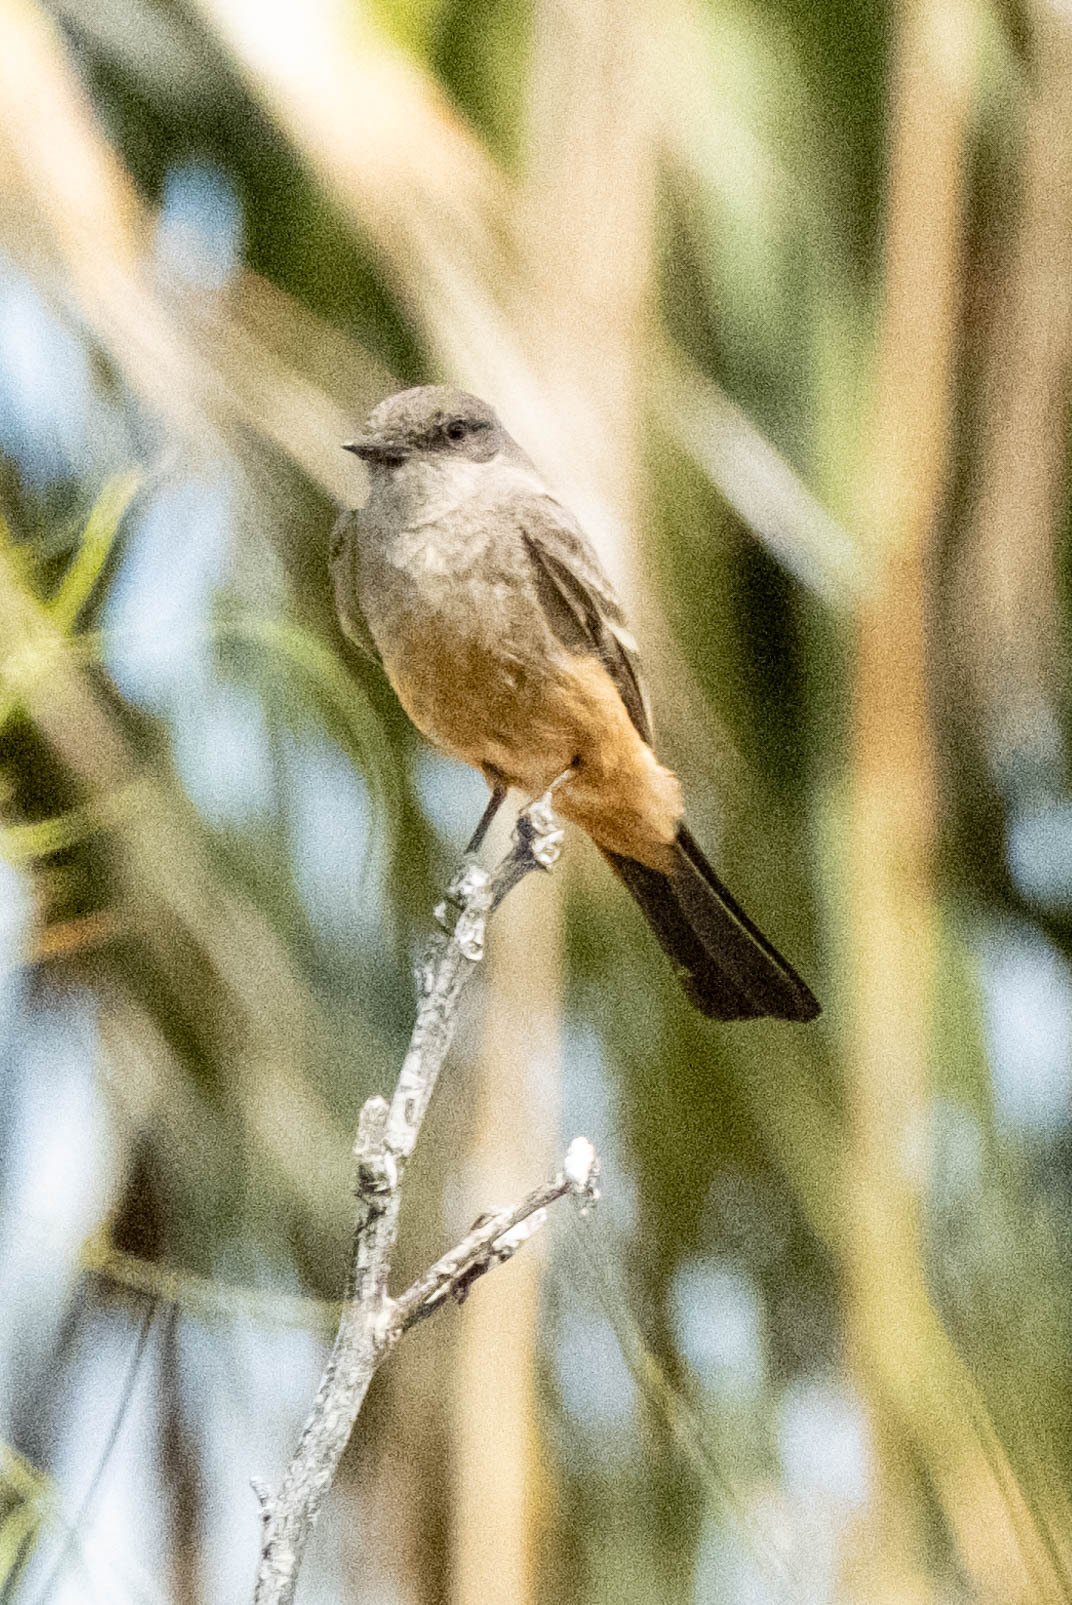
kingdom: Animalia
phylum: Chordata
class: Aves
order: Passeriformes
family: Tyrannidae
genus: Sayornis
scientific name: Sayornis saya
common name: Say's phoebe
